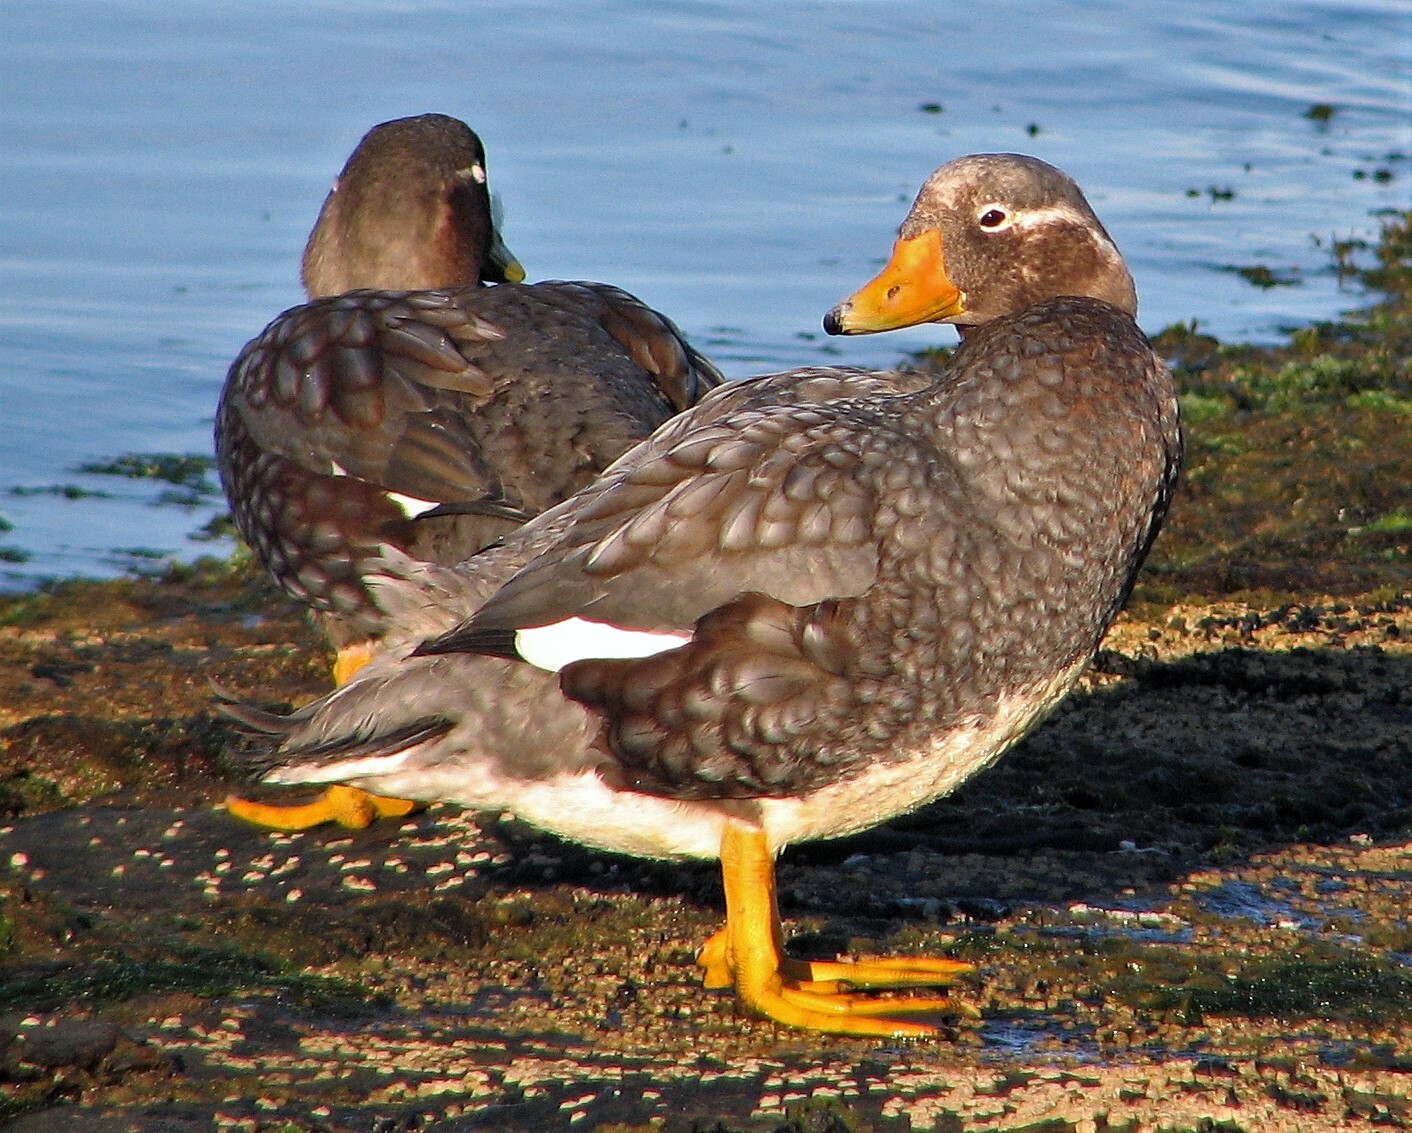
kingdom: Animalia
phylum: Chordata
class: Aves
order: Anseriformes
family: Anatidae
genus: Tachyeres
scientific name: Tachyeres brachypterus
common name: Falkland steamer duck
